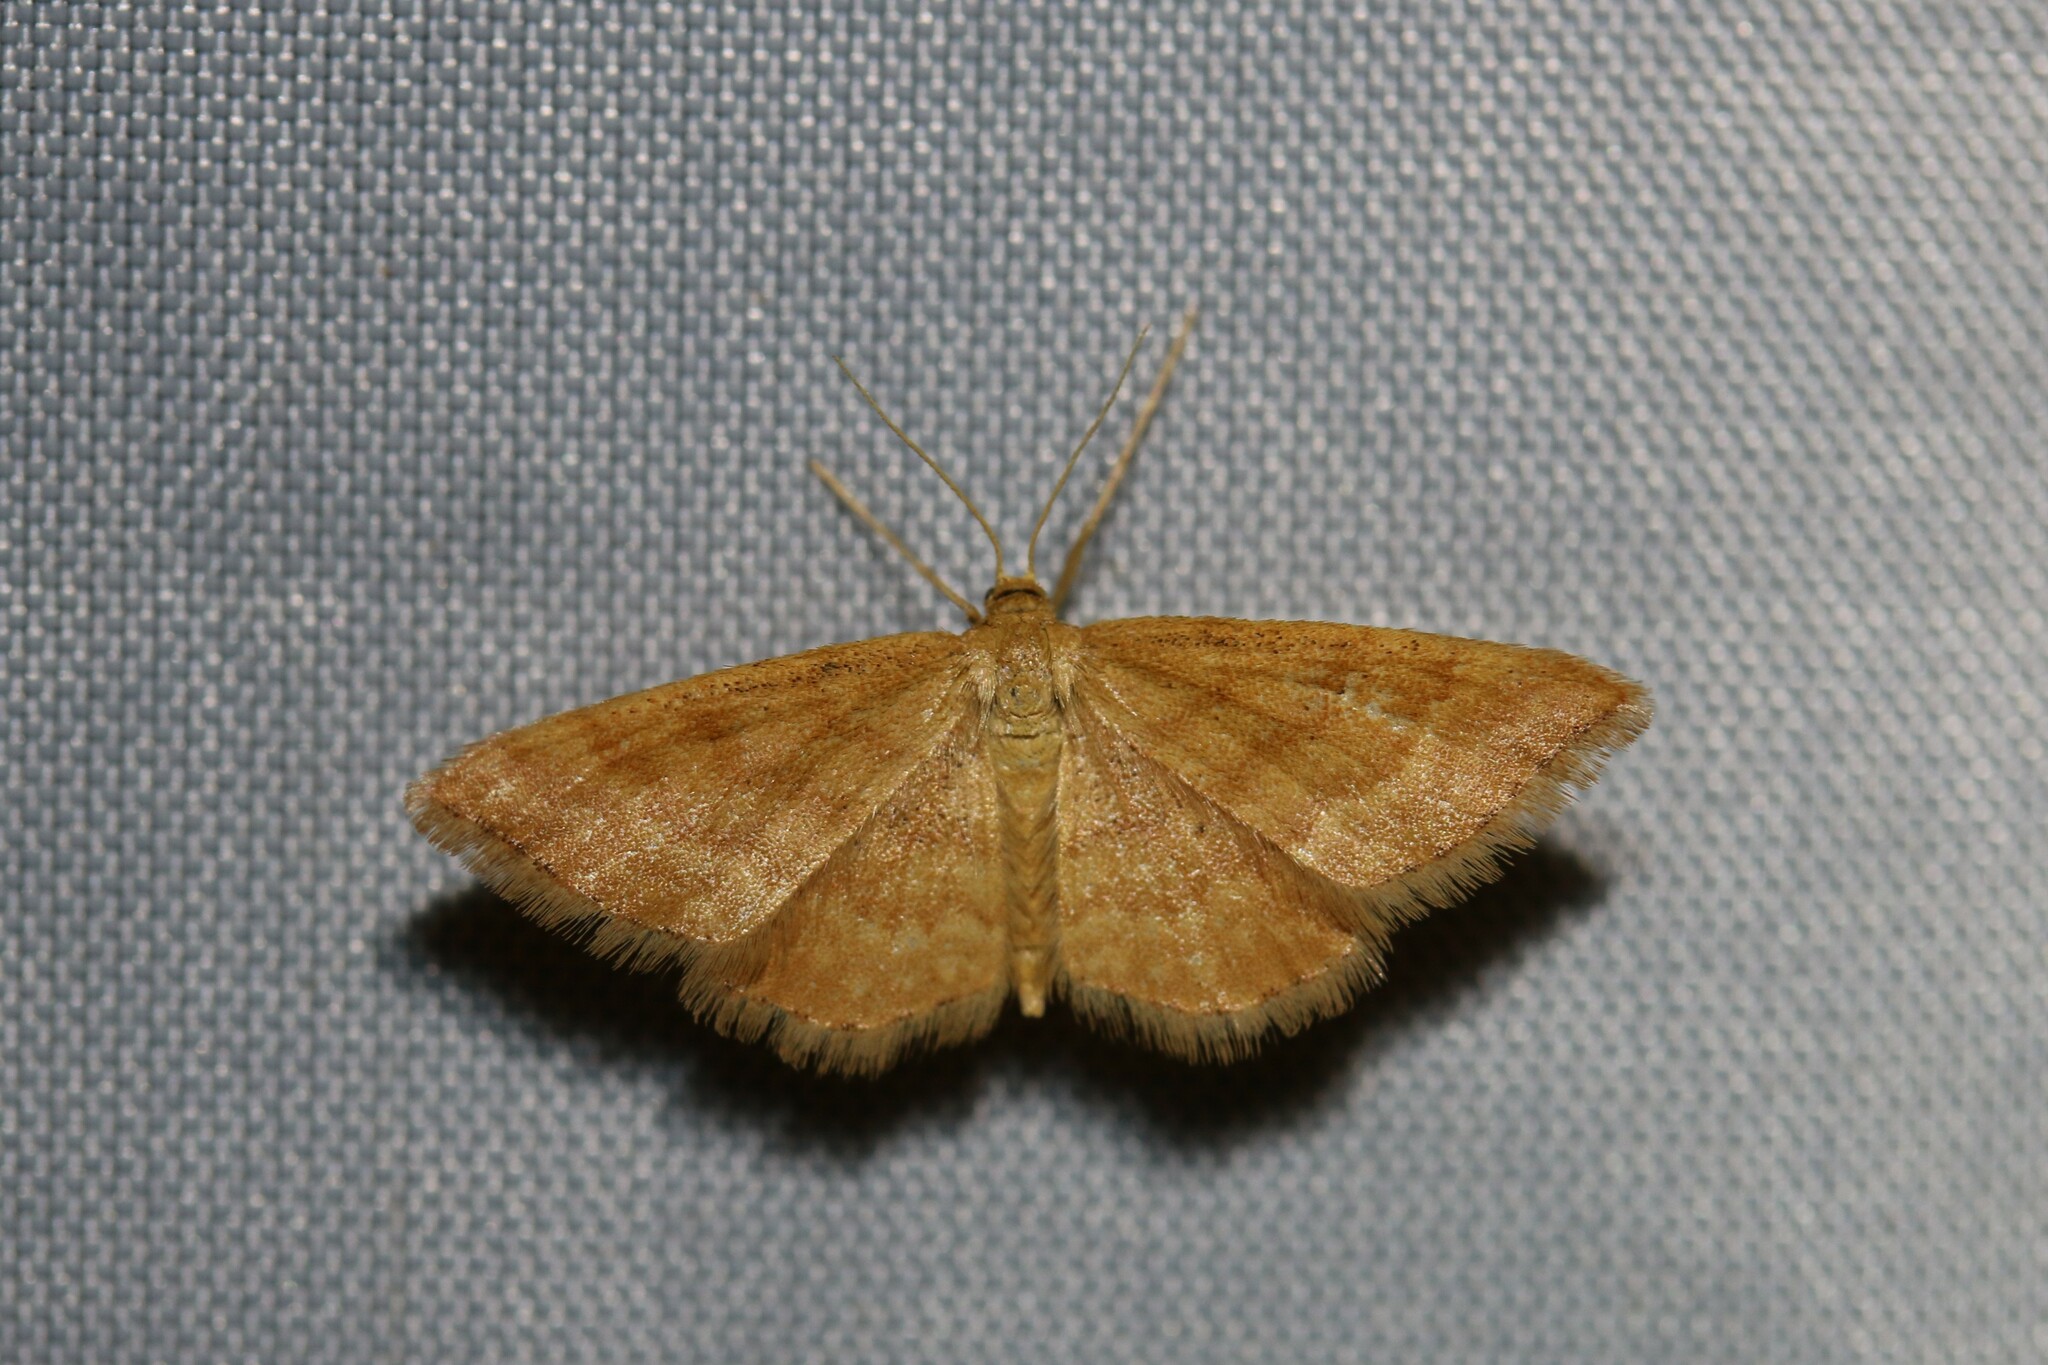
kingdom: Animalia
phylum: Arthropoda
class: Insecta
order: Lepidoptera
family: Geometridae
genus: Idaea
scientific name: Idaea serpentata
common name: Ochraceous wave
